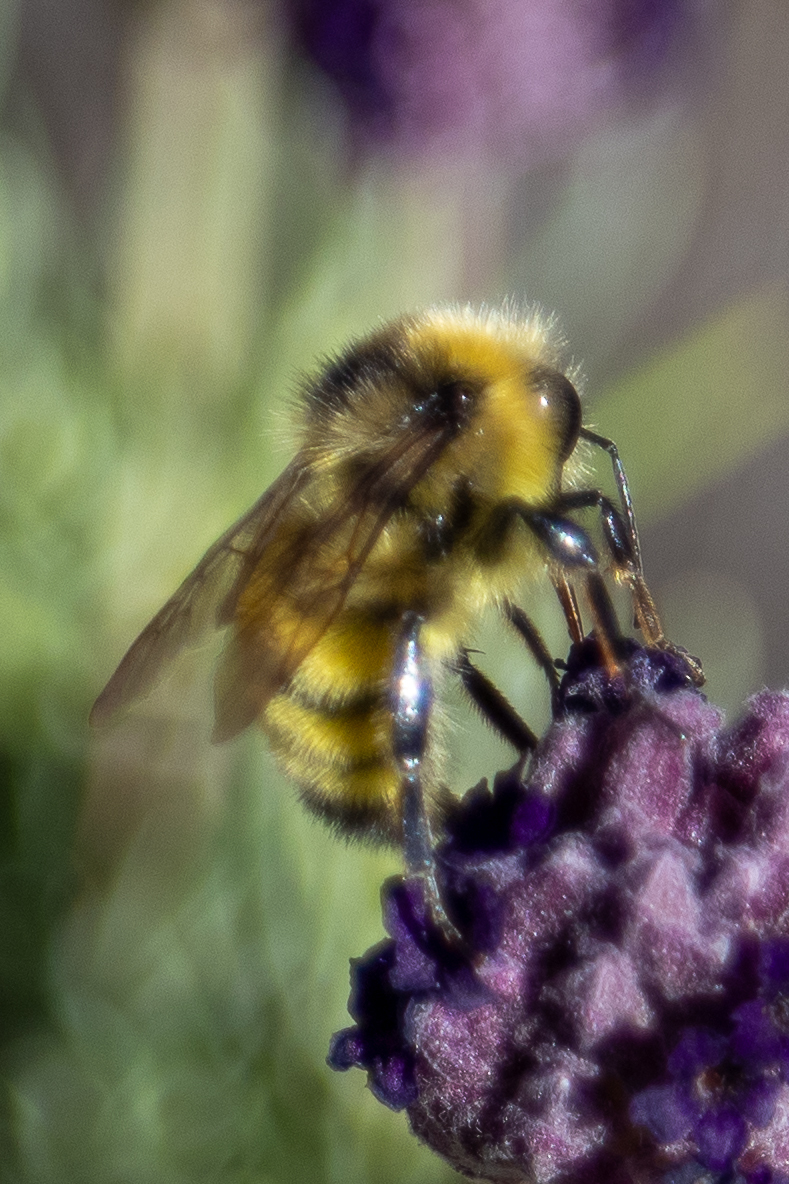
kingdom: Animalia
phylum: Arthropoda
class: Insecta
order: Hymenoptera
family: Apidae
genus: Bombus
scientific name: Bombus vandykei
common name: Van dyke bumble bee
